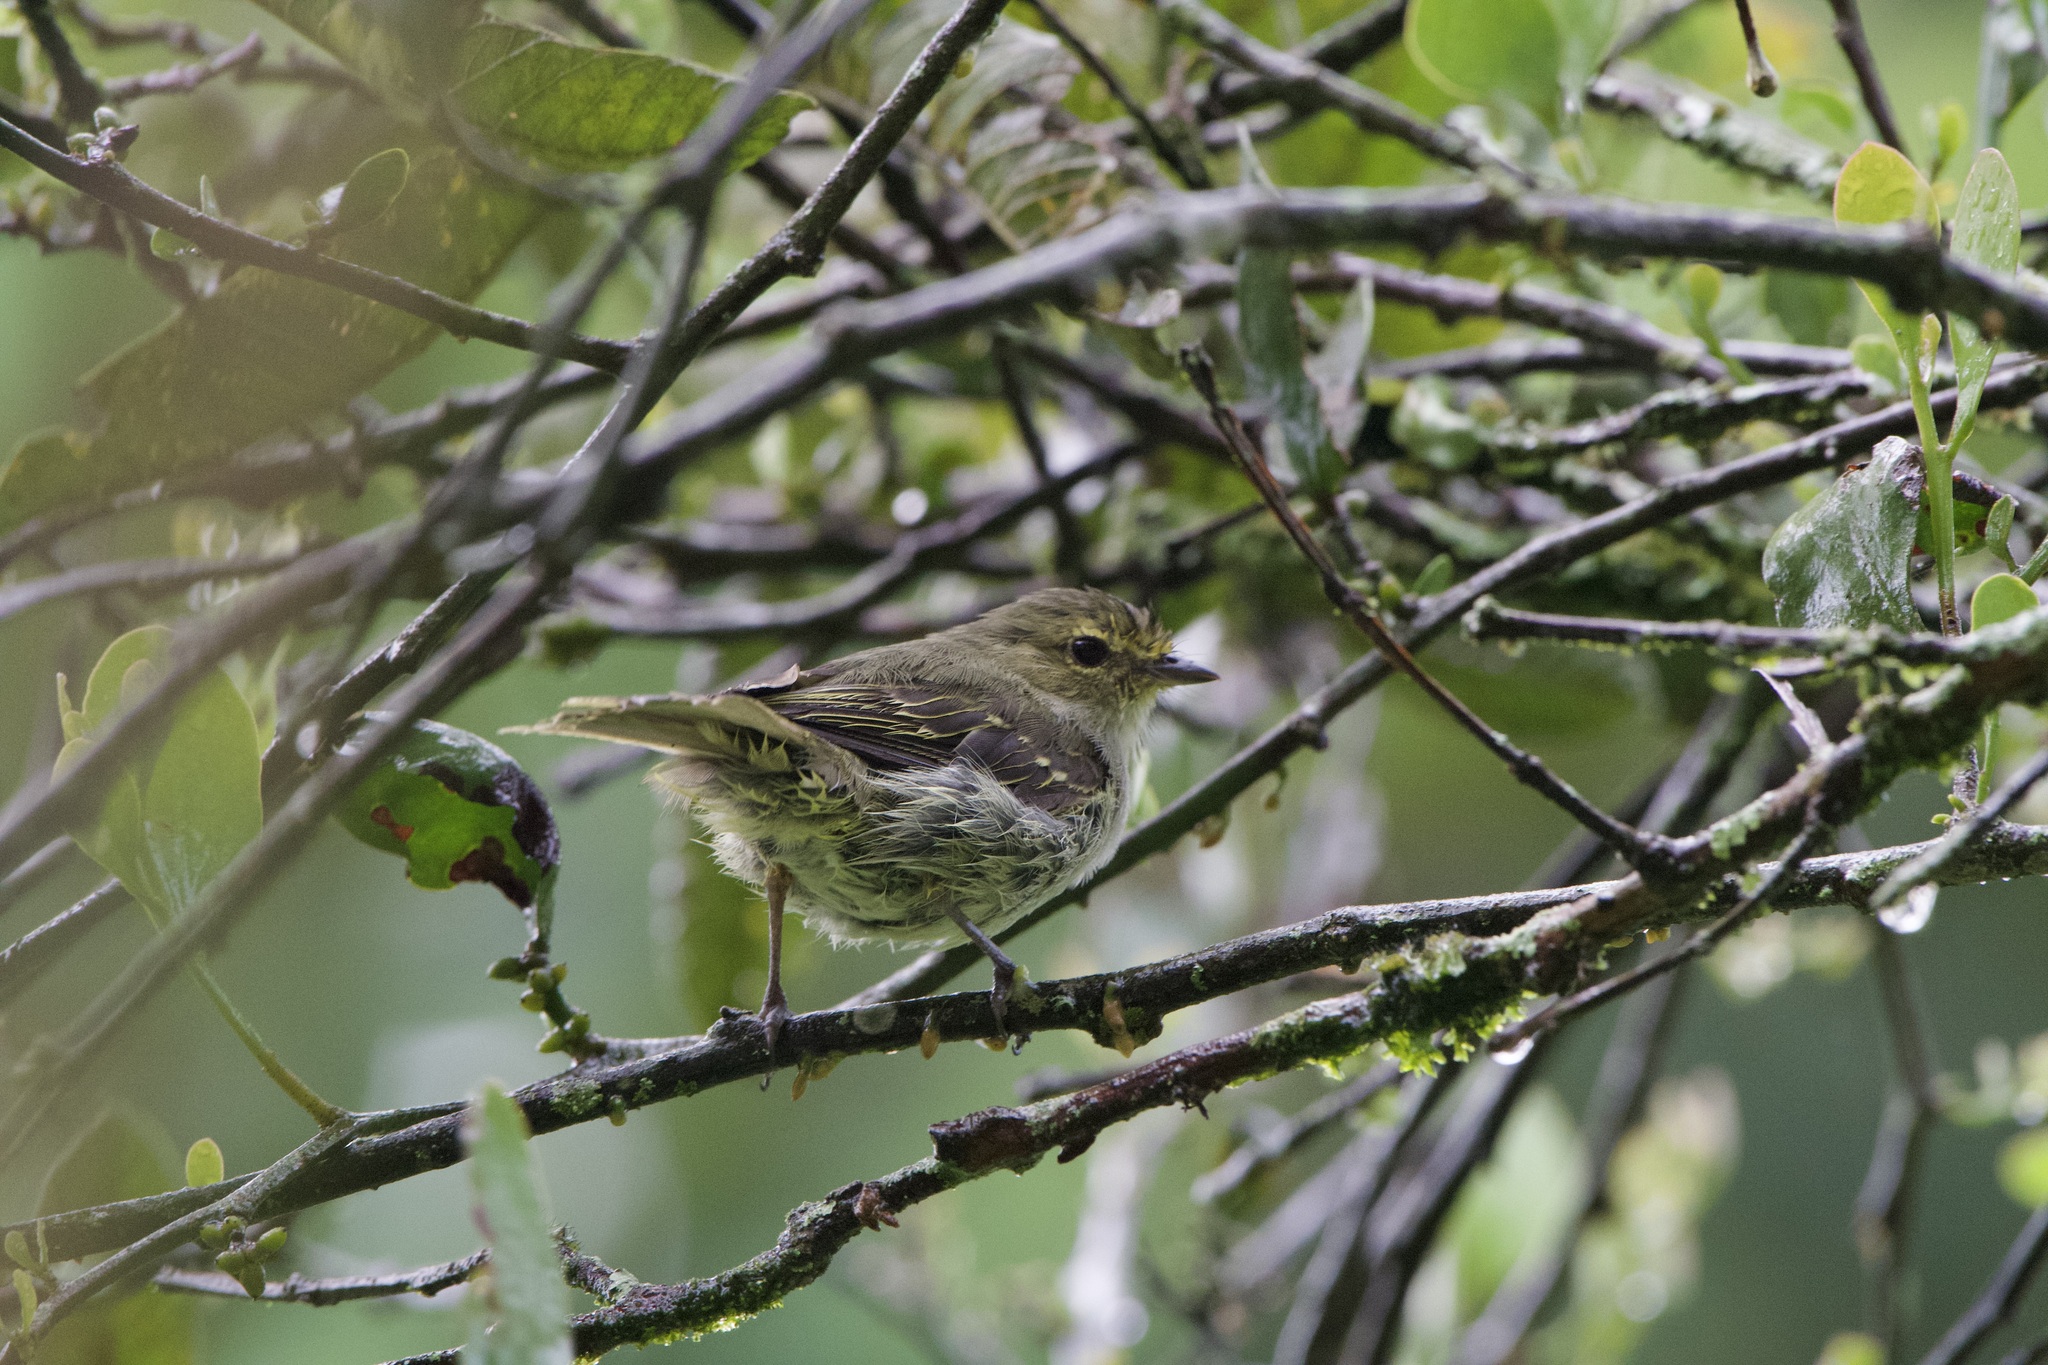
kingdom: Animalia
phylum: Chordata
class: Aves
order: Passeriformes
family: Tyrannidae
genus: Zimmerius
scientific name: Zimmerius chrysops
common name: Golden-faced tyrannulet
